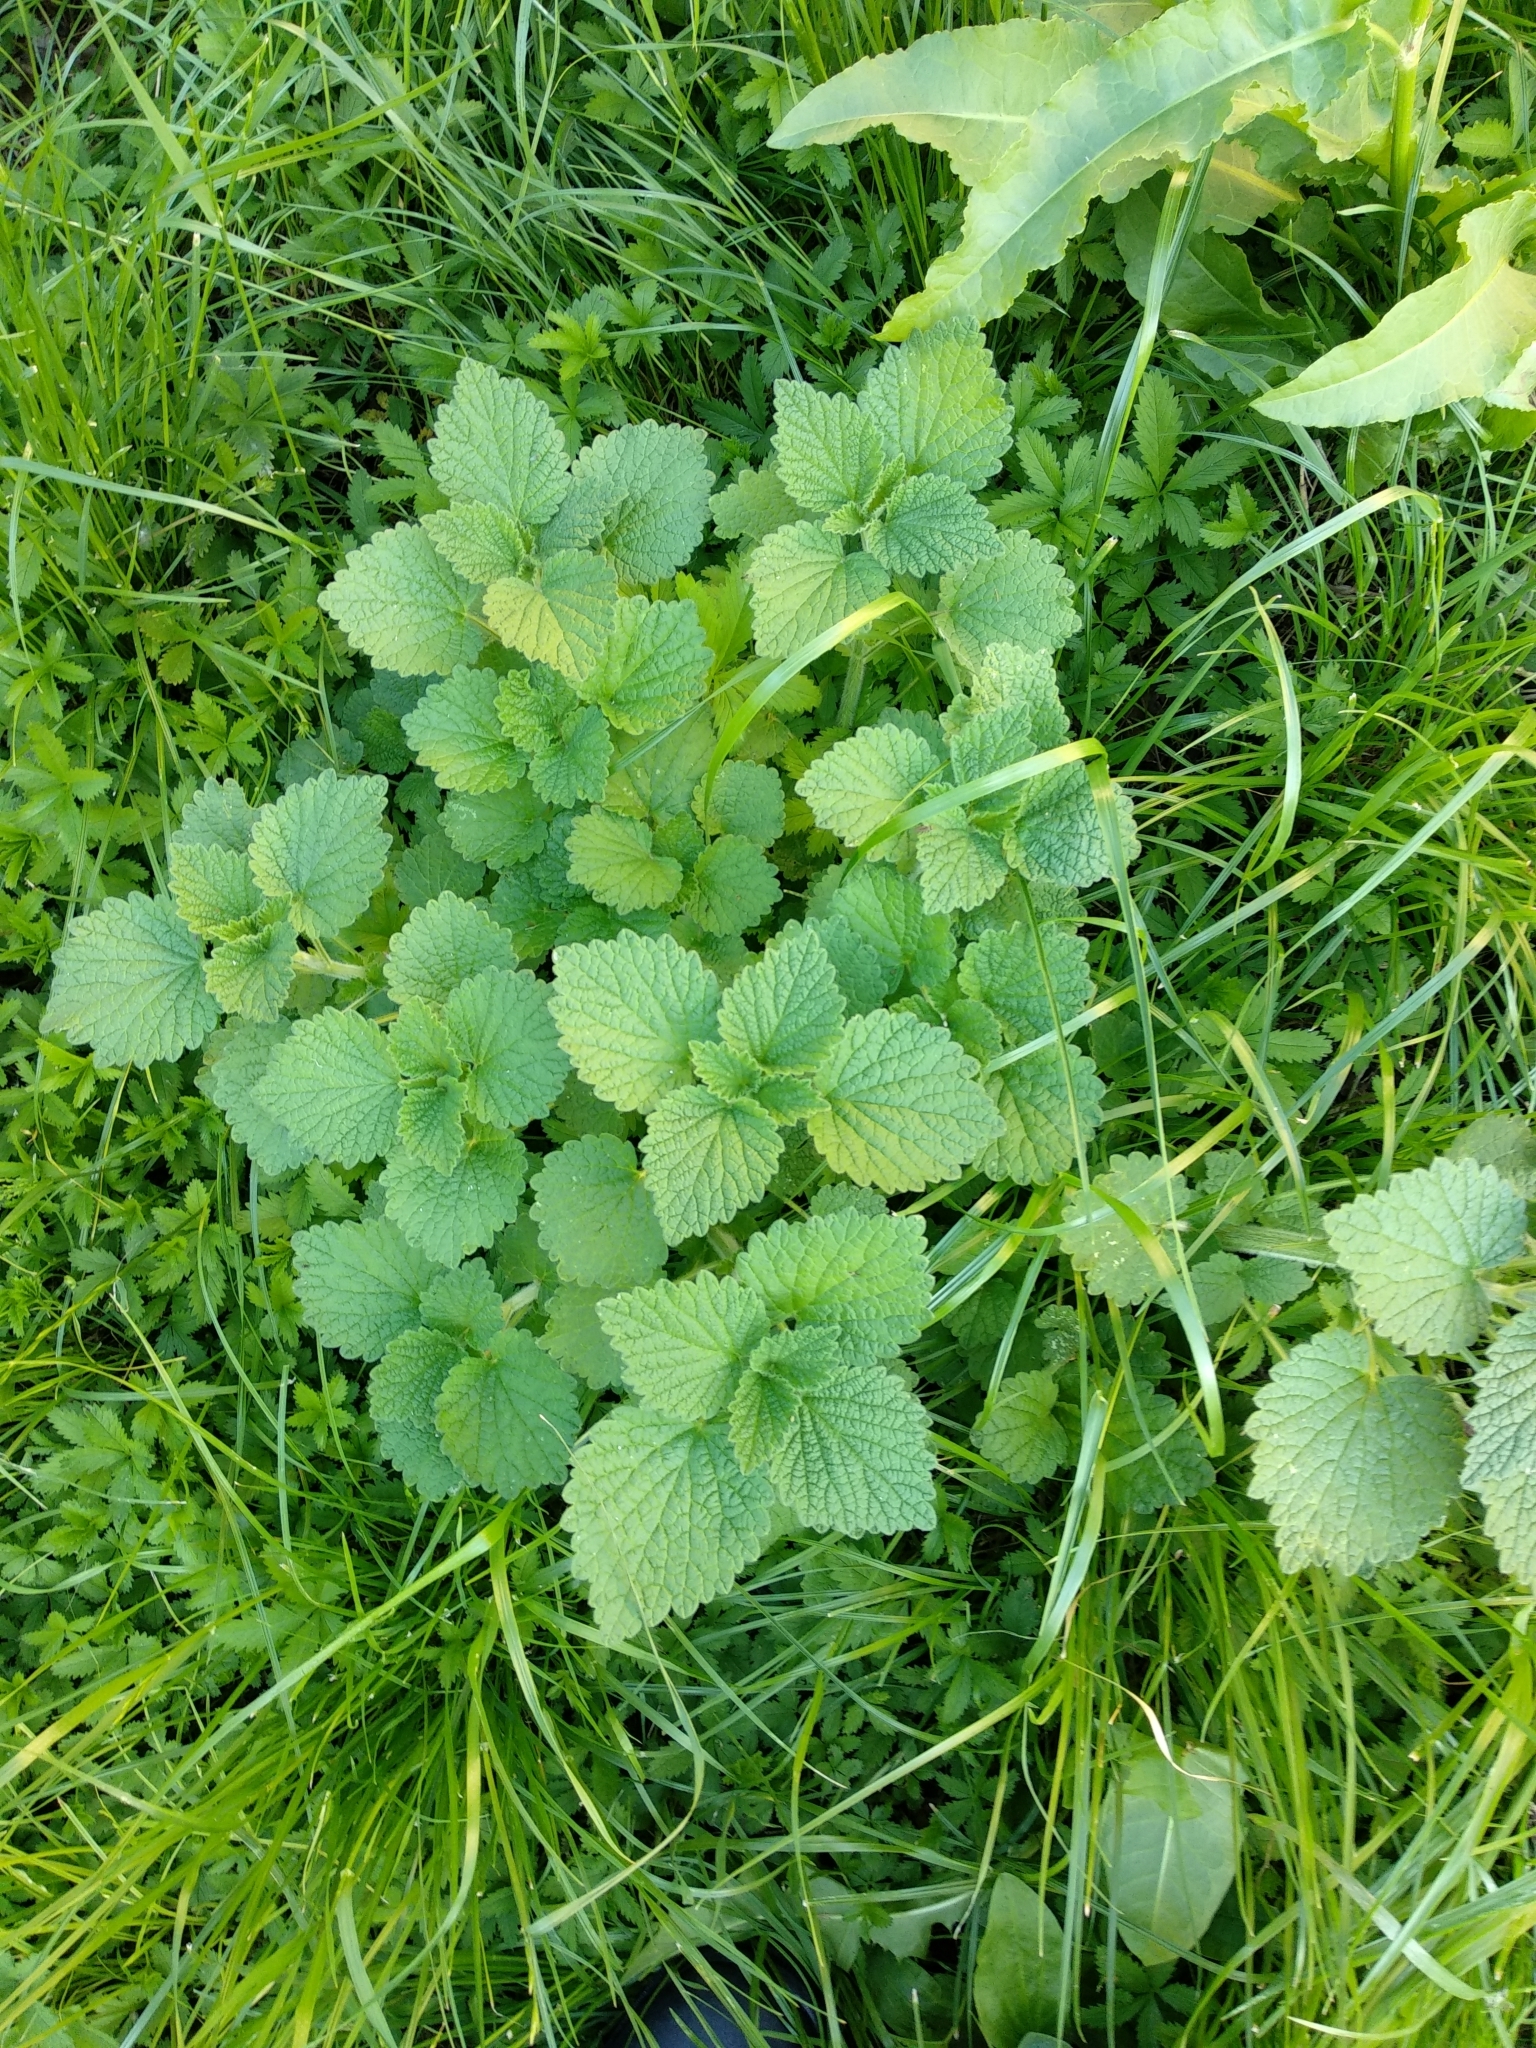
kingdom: Plantae
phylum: Tracheophyta
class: Magnoliopsida
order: Lamiales
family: Lamiaceae
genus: Ballota
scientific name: Ballota nigra
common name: Black horehound
